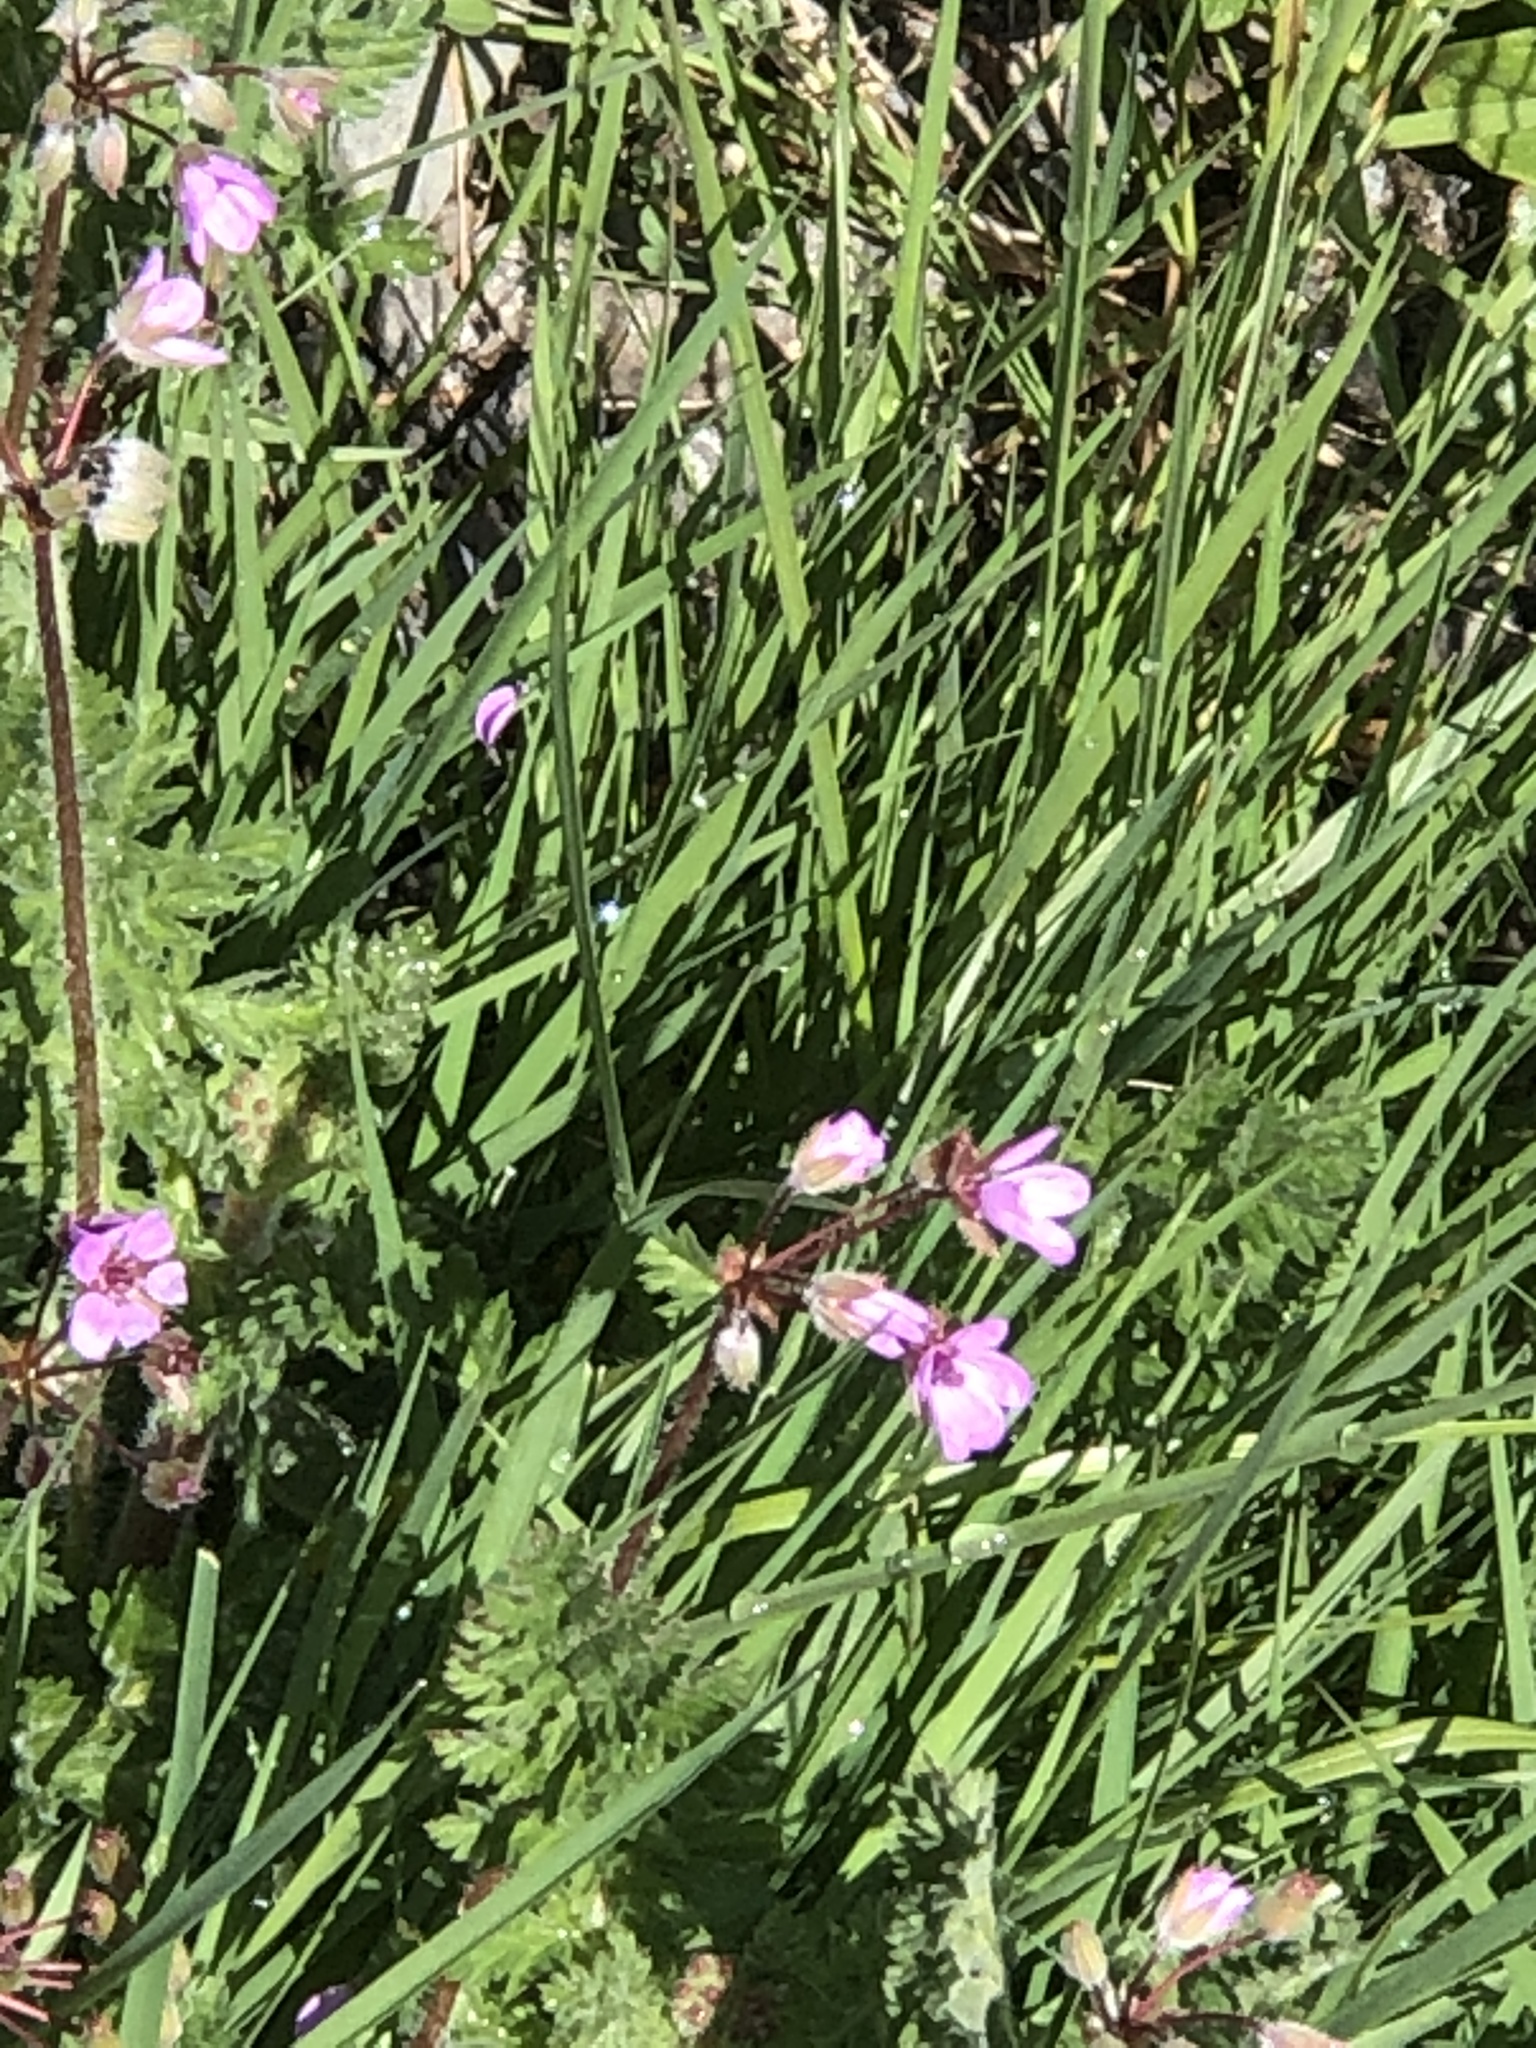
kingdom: Plantae
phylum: Tracheophyta
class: Magnoliopsida
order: Geraniales
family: Geraniaceae
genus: Erodium
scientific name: Erodium cicutarium
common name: Common stork's-bill
